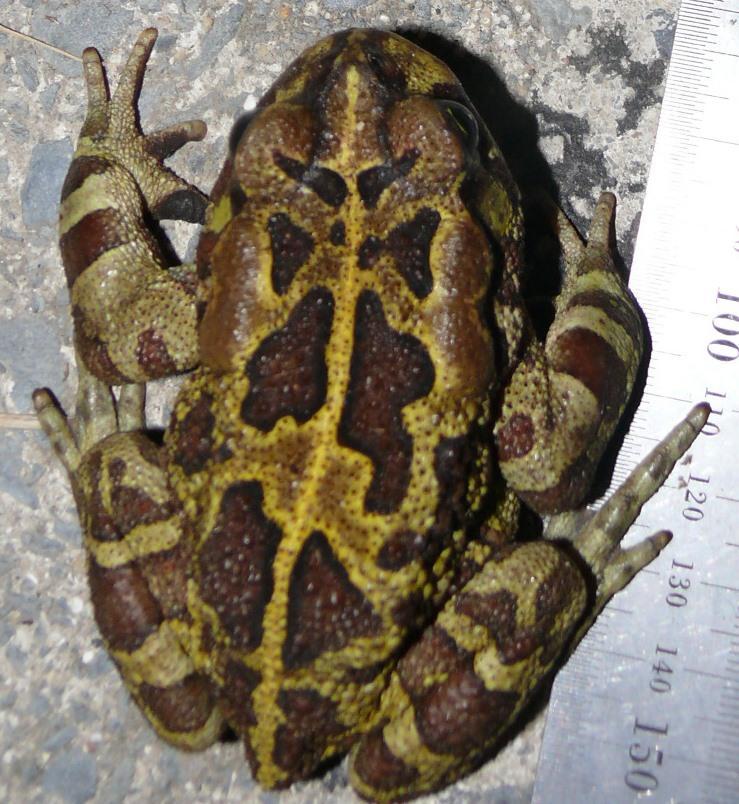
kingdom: Animalia
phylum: Chordata
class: Amphibia
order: Anura
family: Bufonidae
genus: Sclerophrys
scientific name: Sclerophrys pantherina
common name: Panther toad
